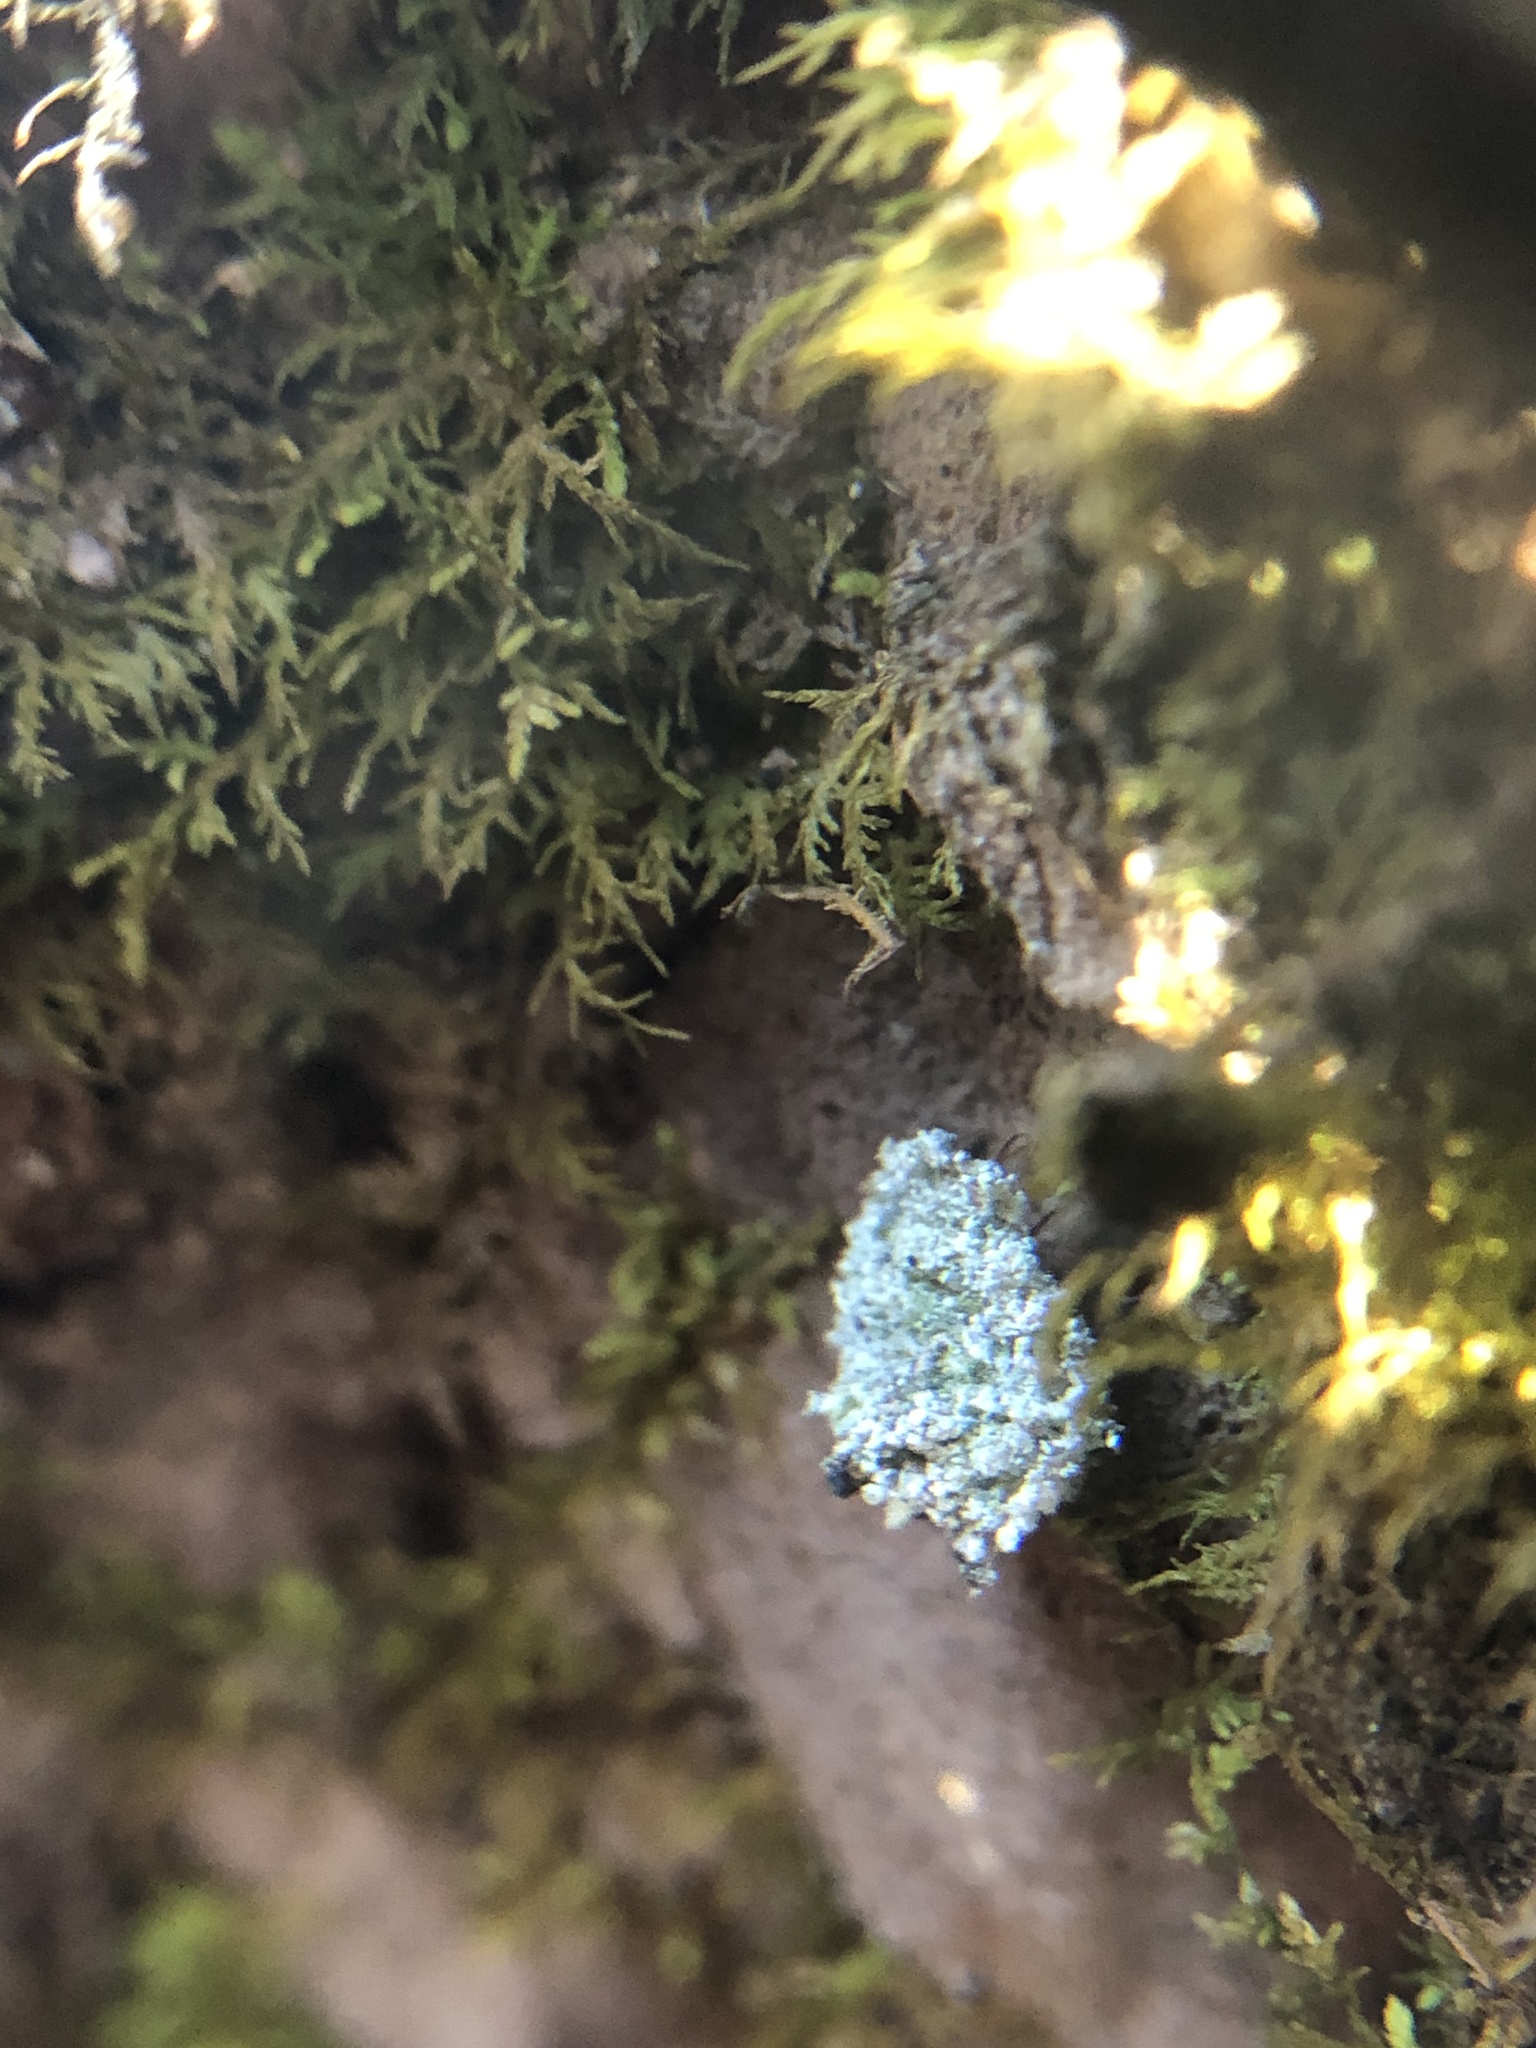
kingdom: Animalia
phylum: Arthropoda
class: Insecta
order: Neuroptera
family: Chrysopidae
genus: Leucochrysa
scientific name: Leucochrysa pavida
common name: Lichen-carrying green lacewing
